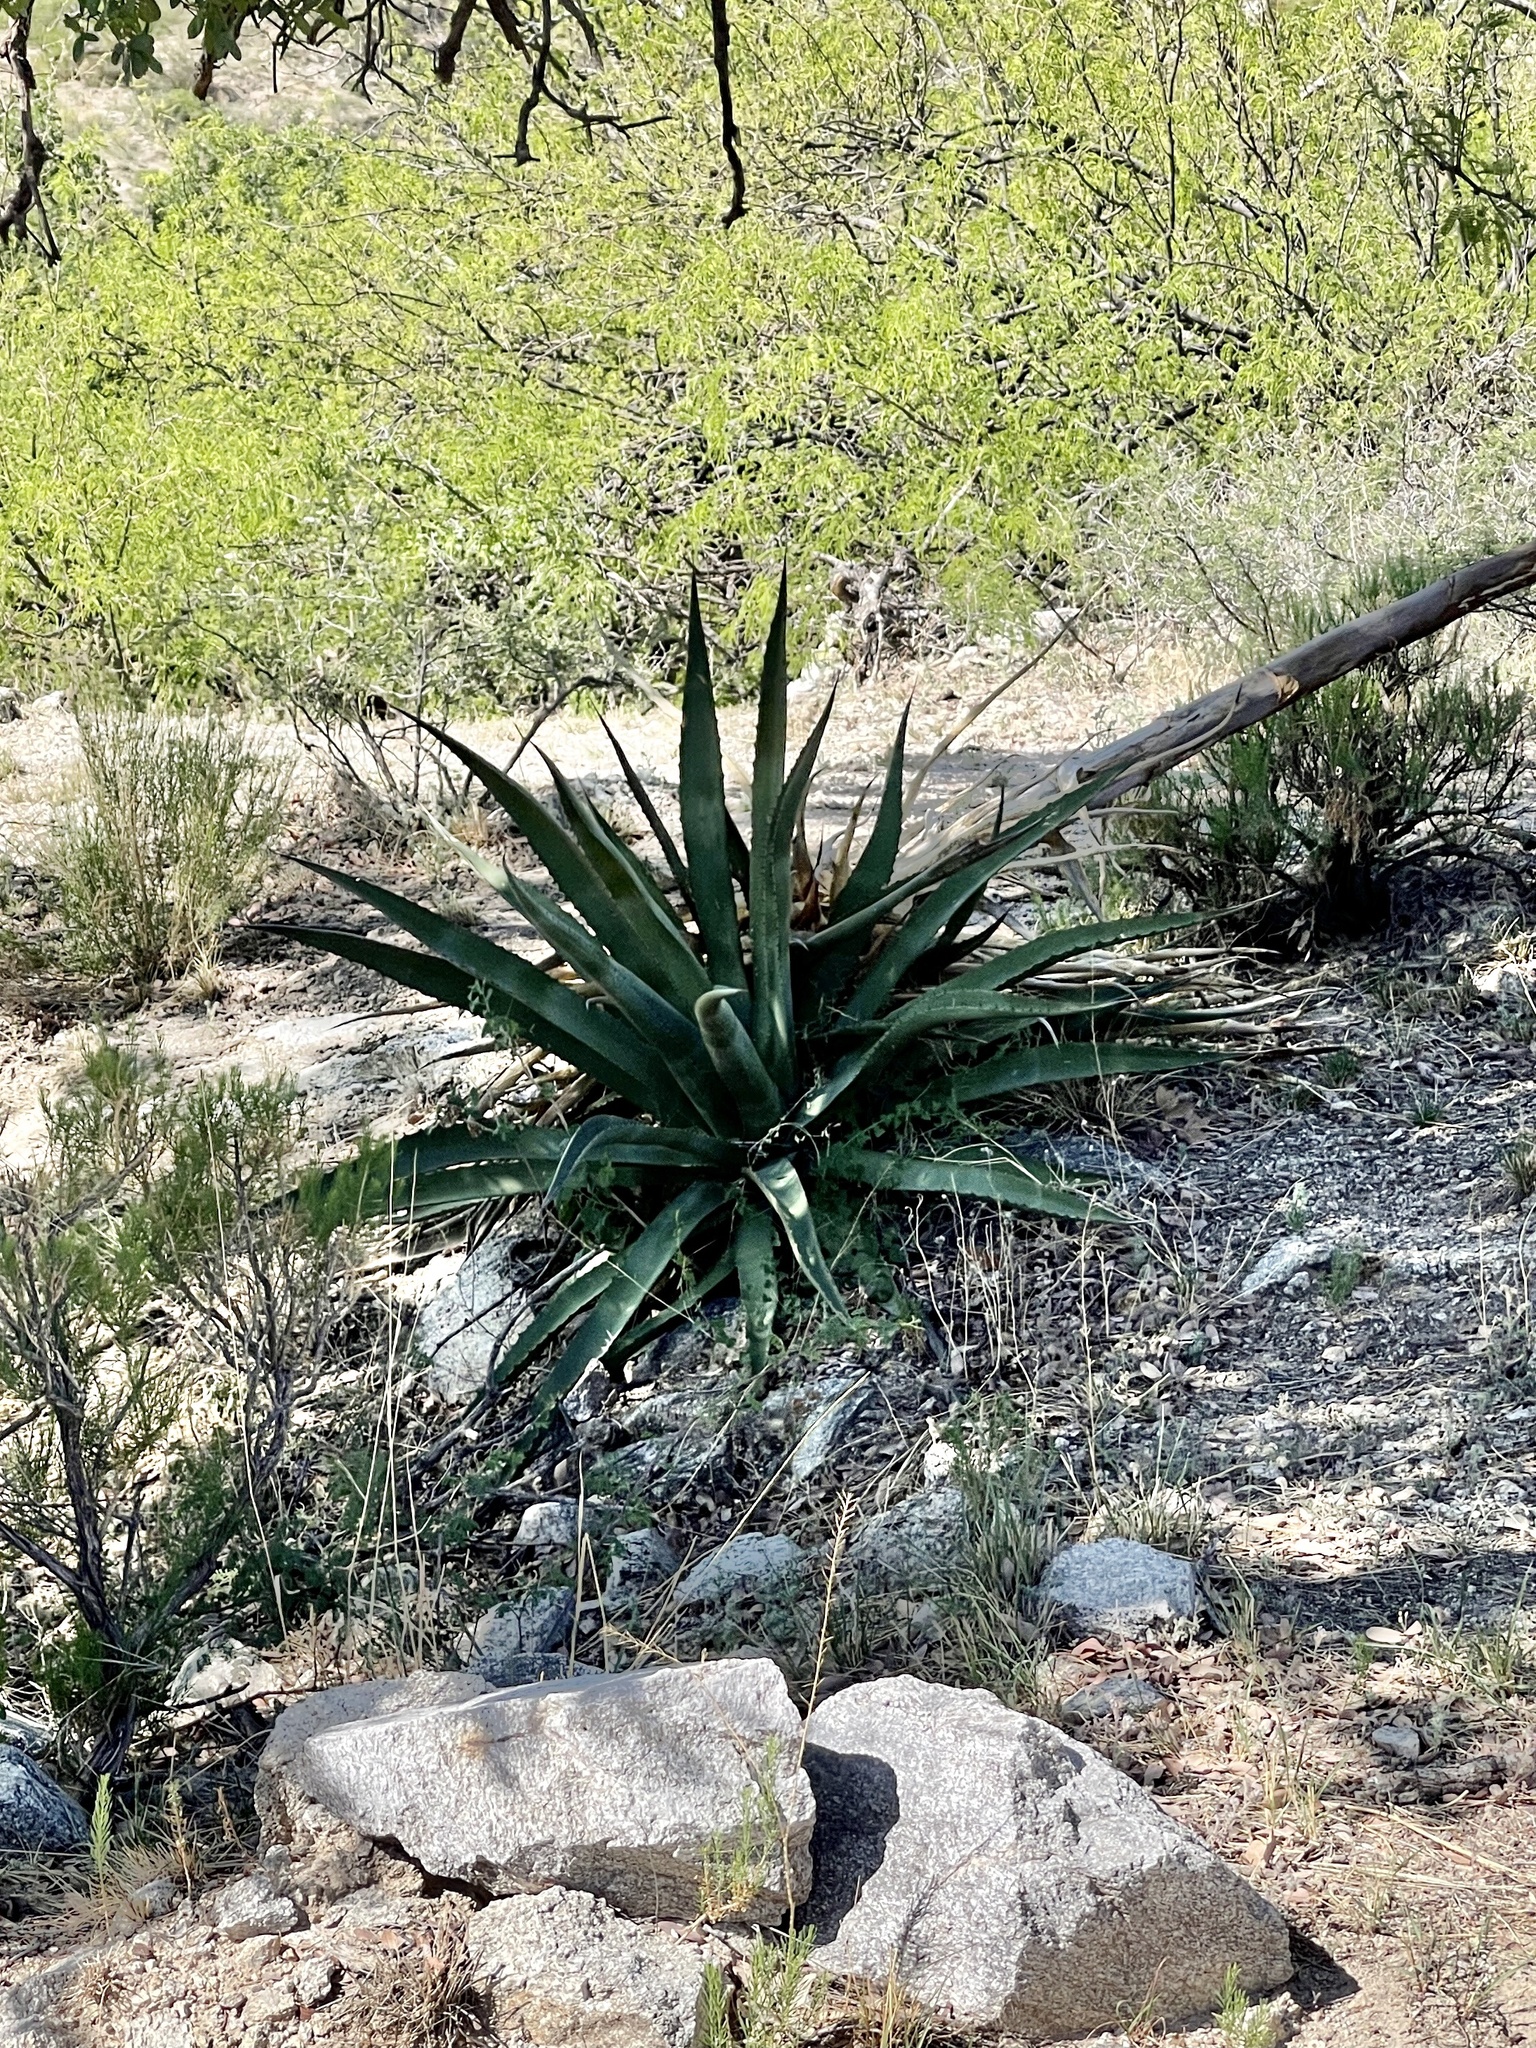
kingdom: Plantae
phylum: Tracheophyta
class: Liliopsida
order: Asparagales
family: Asparagaceae
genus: Agave
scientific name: Agave palmeri
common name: Palmer agave
